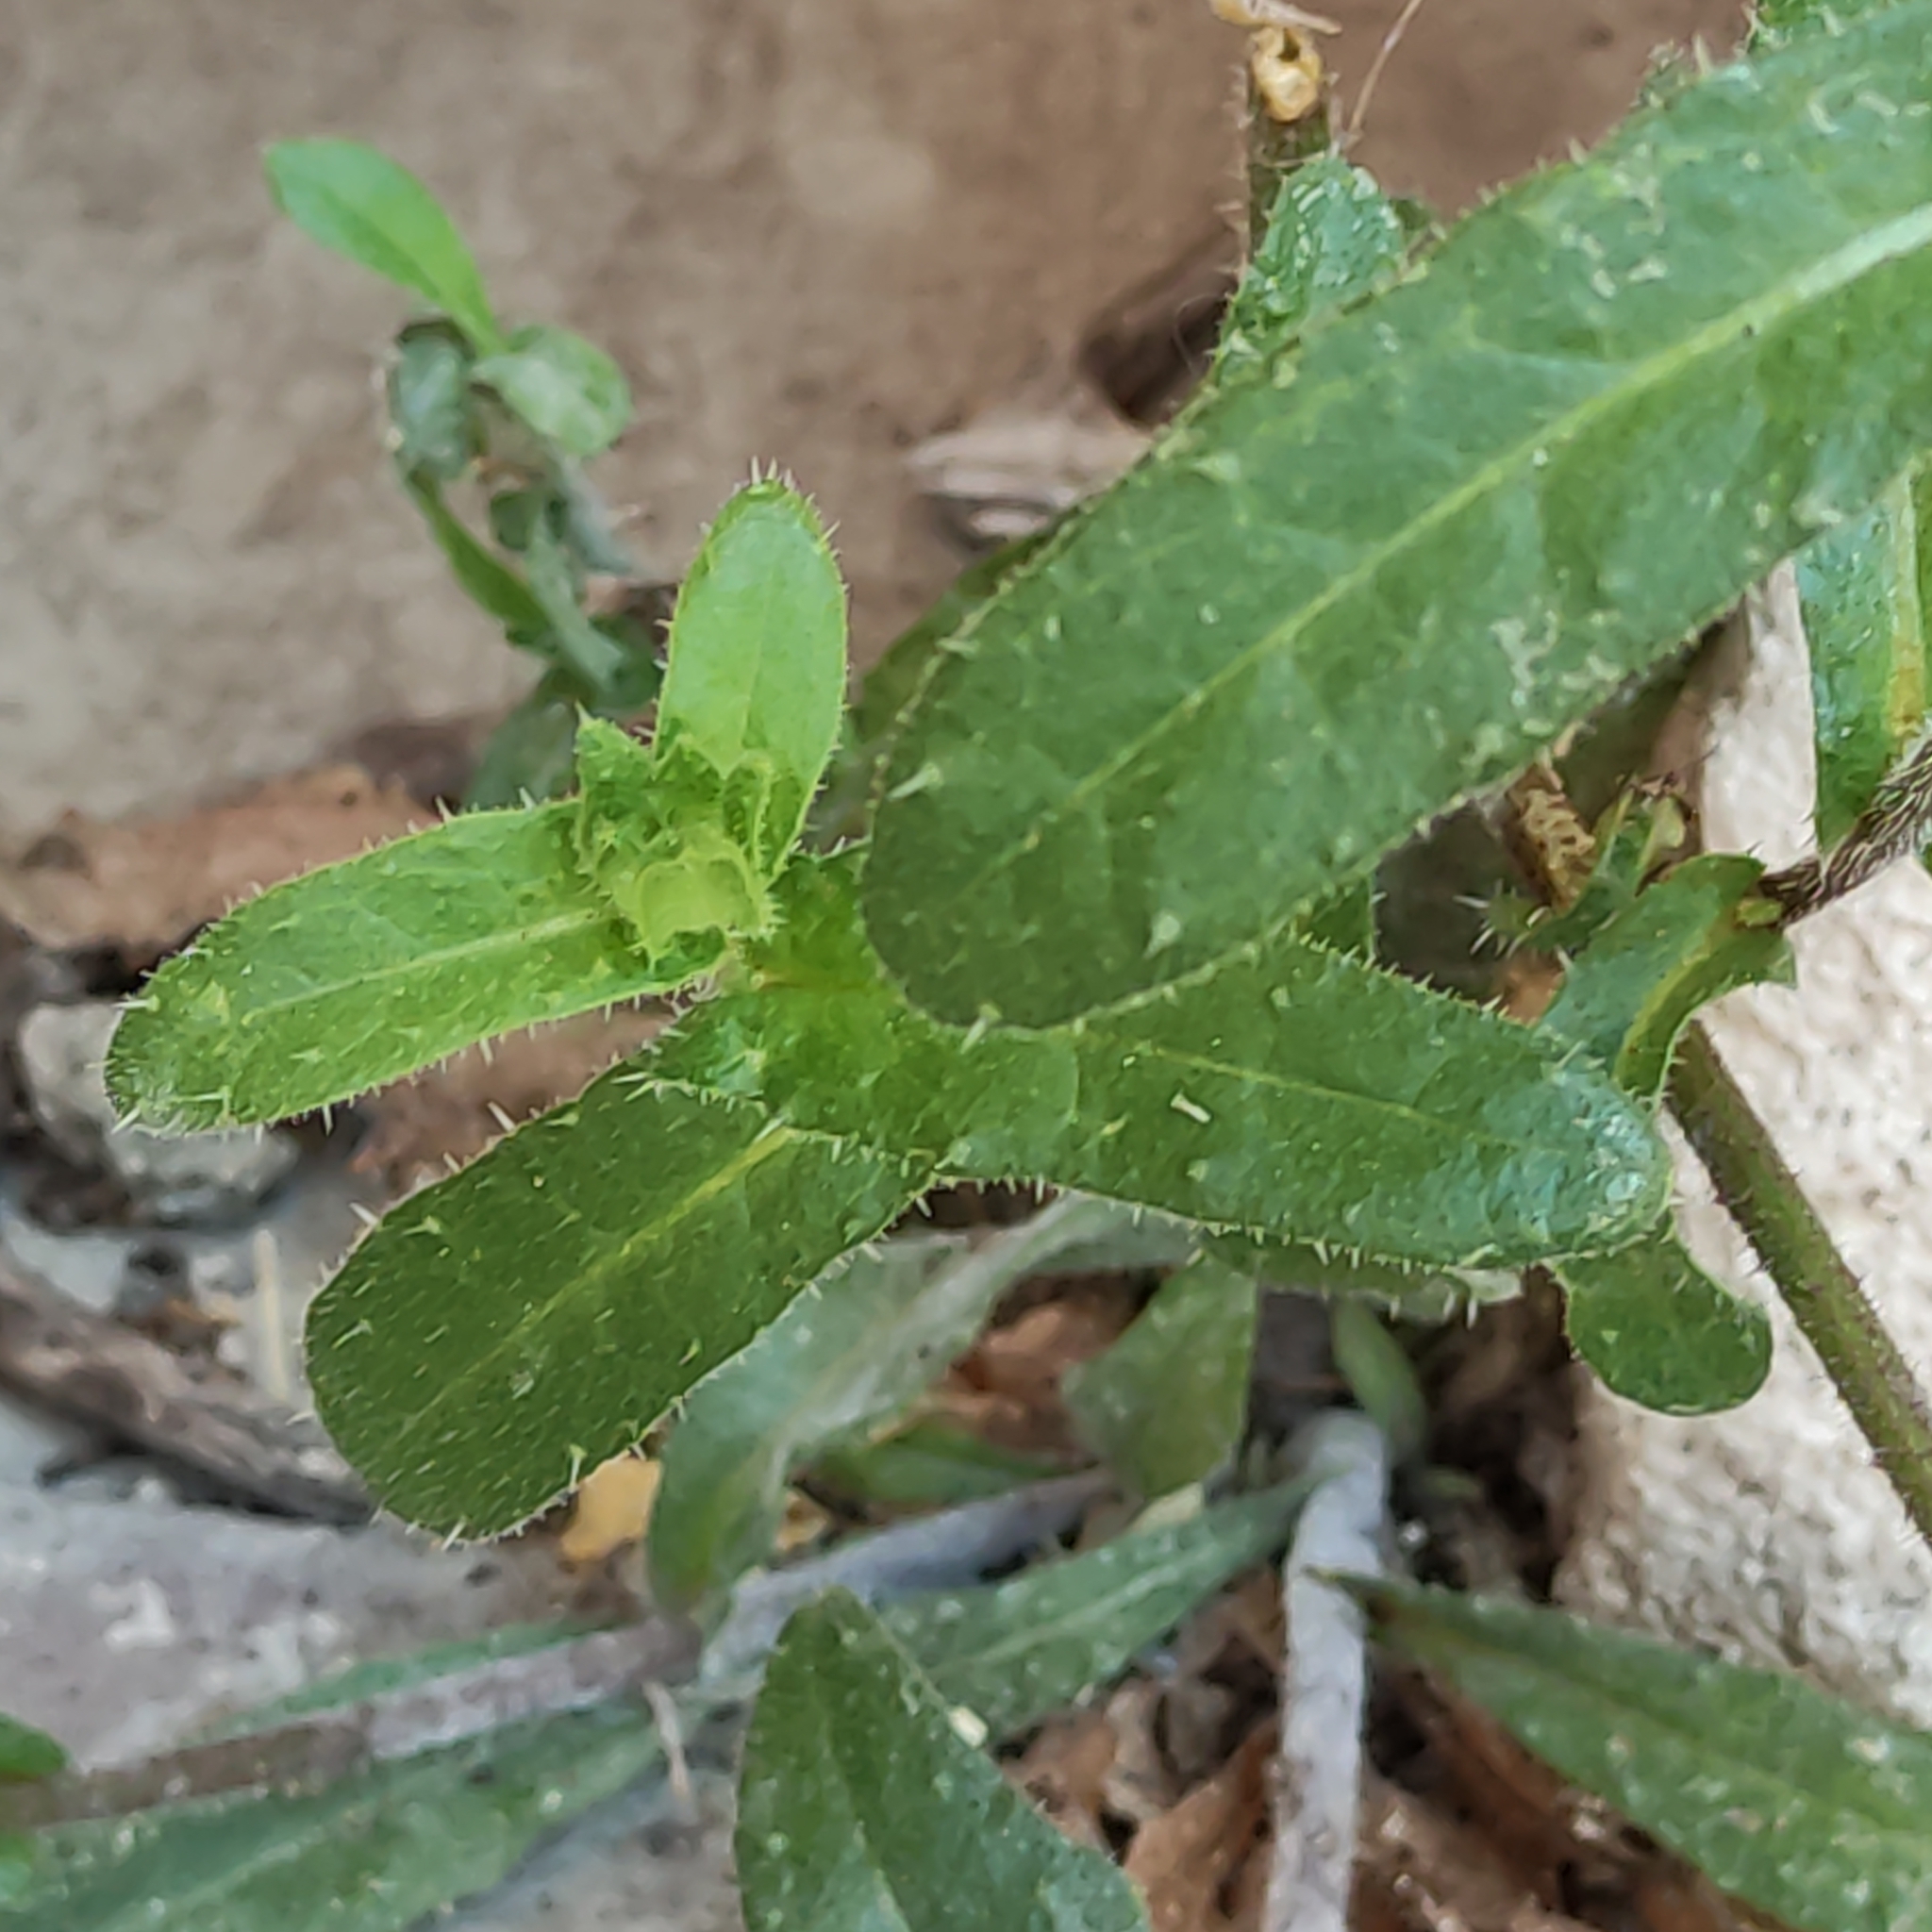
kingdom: Plantae
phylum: Tracheophyta
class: Magnoliopsida
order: Asterales
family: Asteraceae
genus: Helminthotheca
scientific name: Helminthotheca echioides
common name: Ox-tongue
